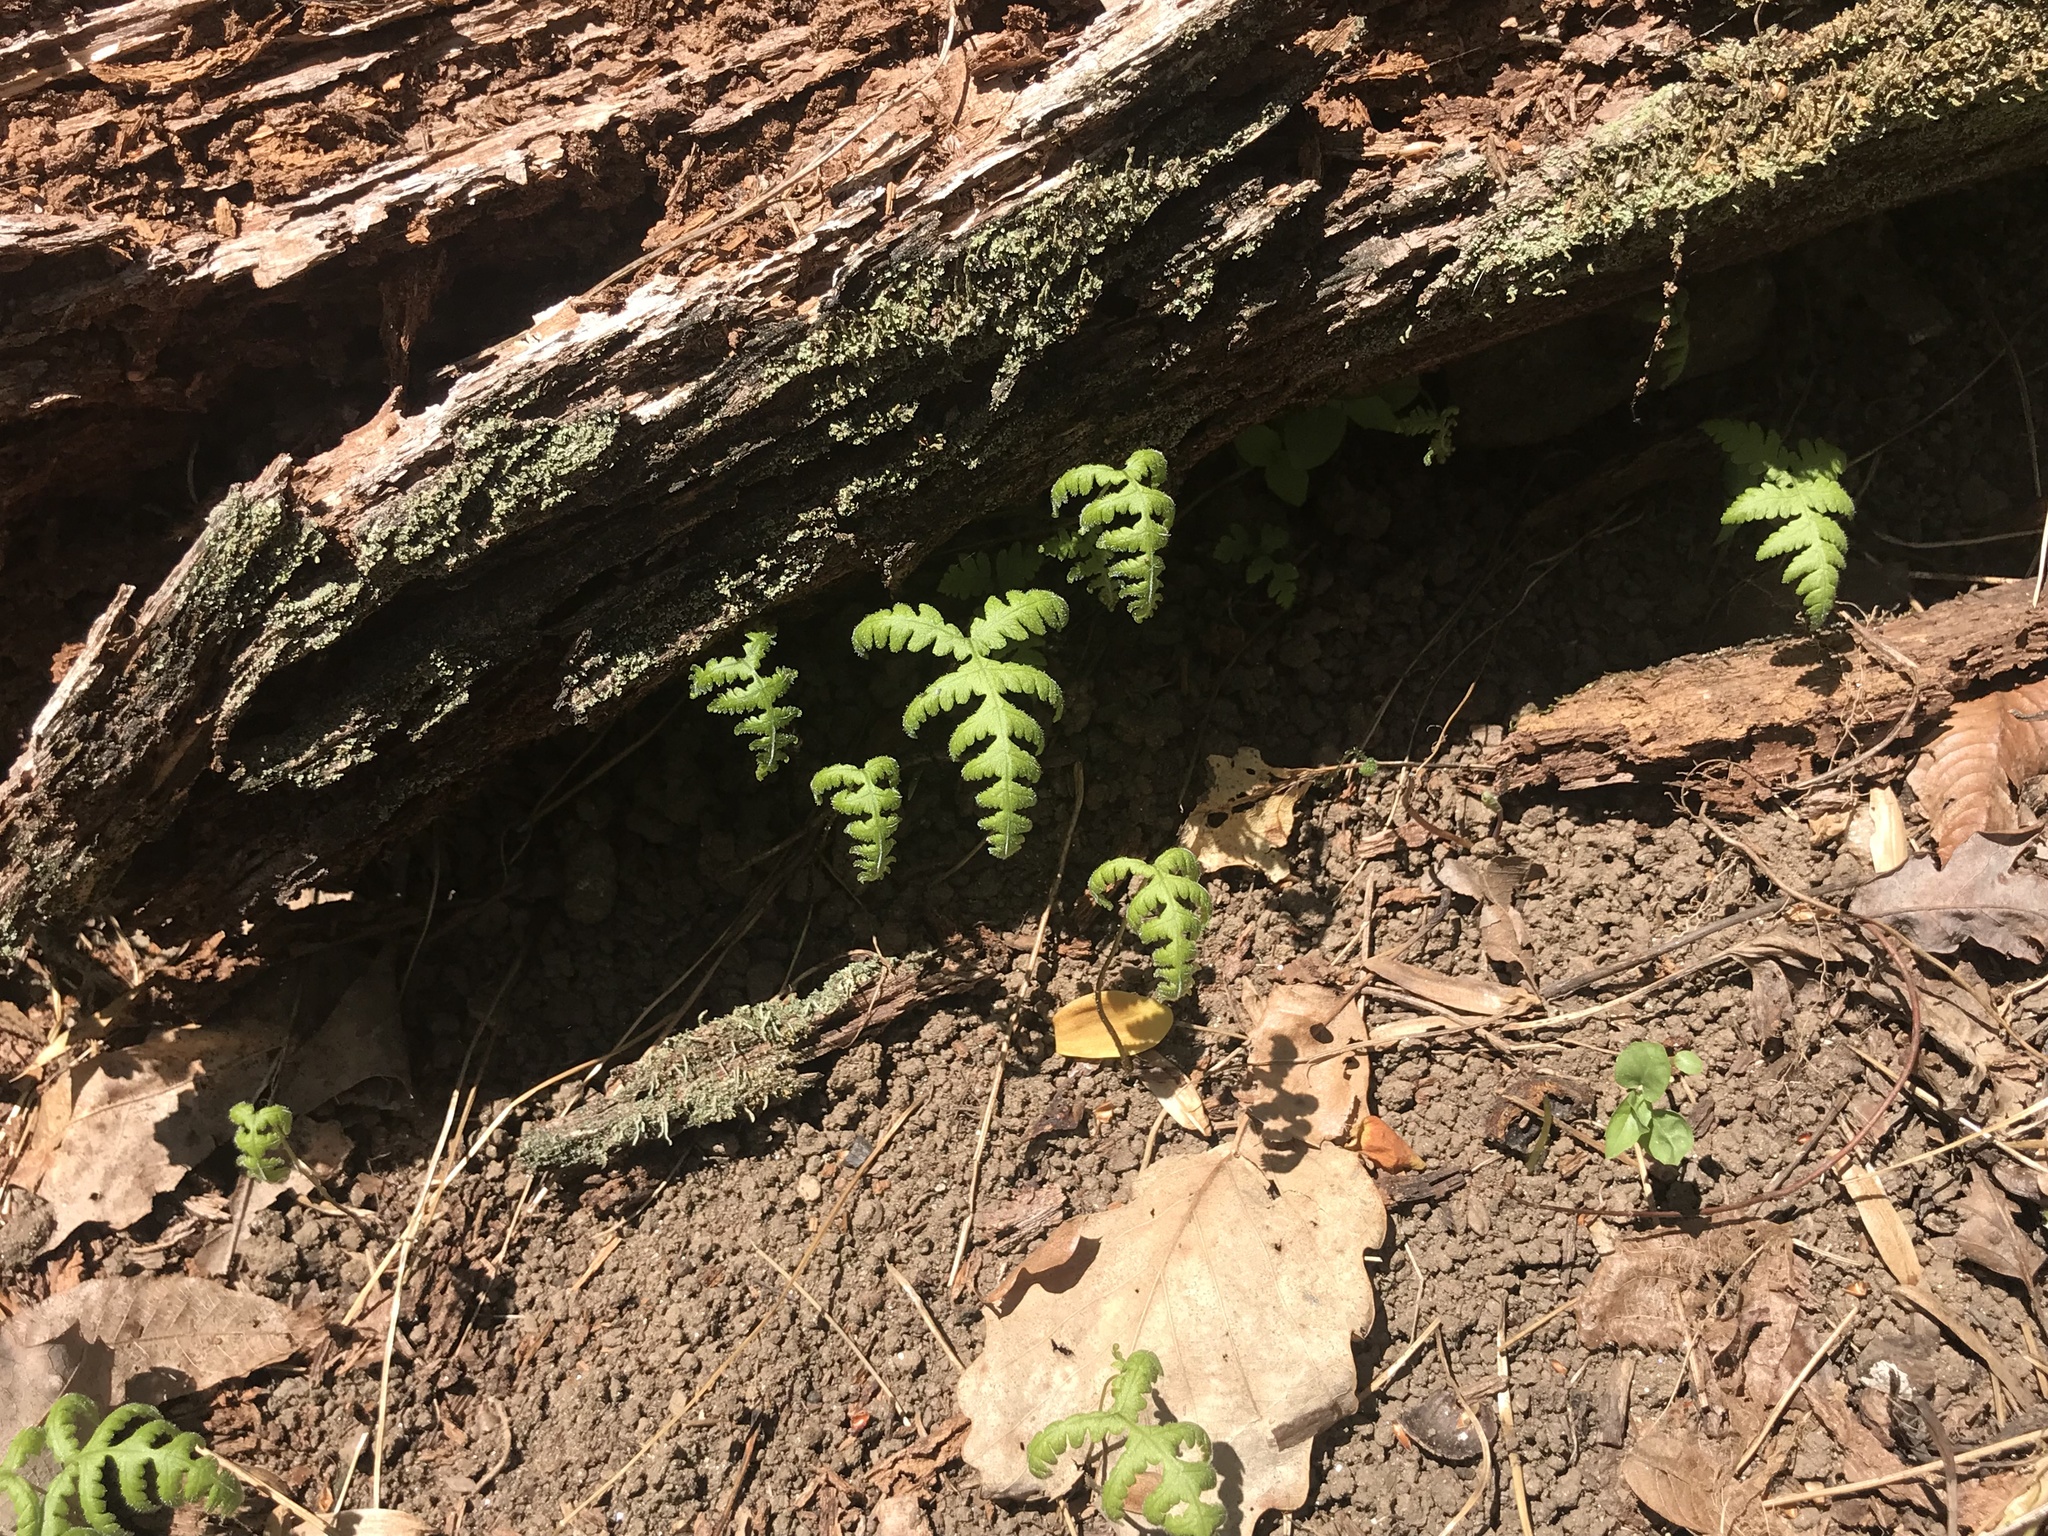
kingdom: Plantae
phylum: Tracheophyta
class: Polypodiopsida
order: Polypodiales
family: Thelypteridaceae
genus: Phegopteris
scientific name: Phegopteris hexagonoptera
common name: Broad beech fern
